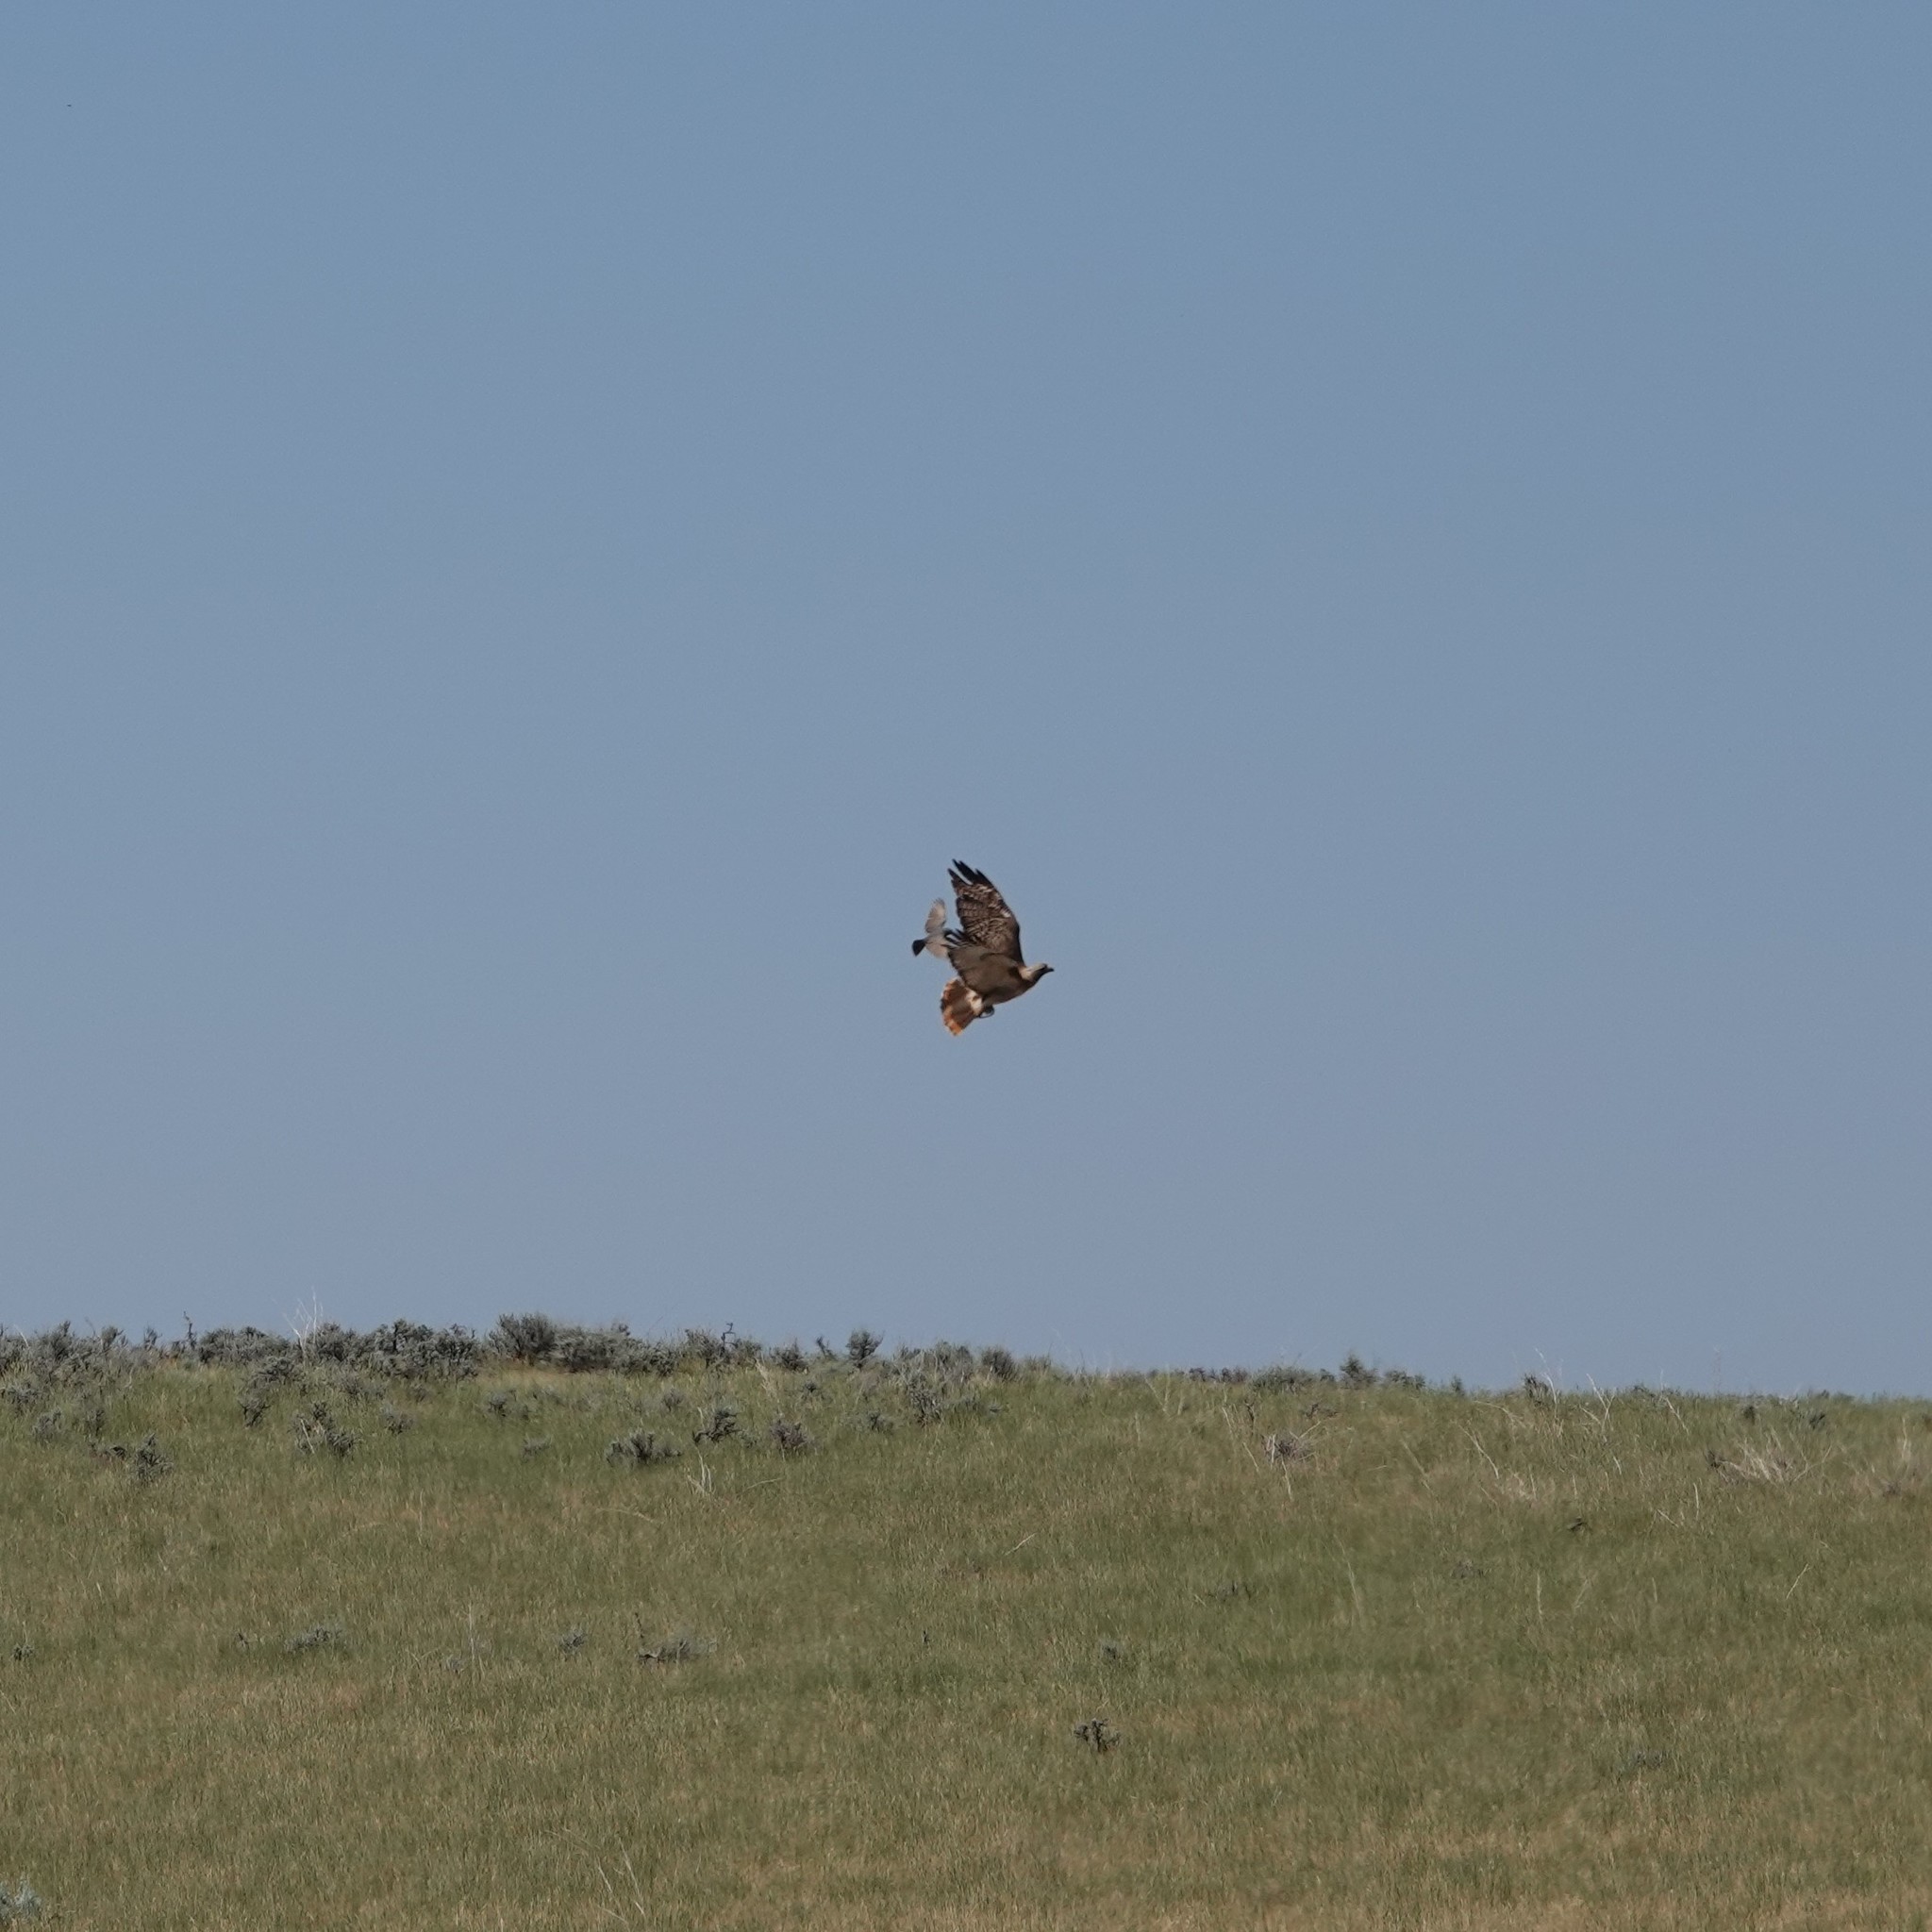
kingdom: Animalia
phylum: Chordata
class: Aves
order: Accipitriformes
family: Accipitridae
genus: Buteo
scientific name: Buteo jamaicensis
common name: Red-tailed hawk
